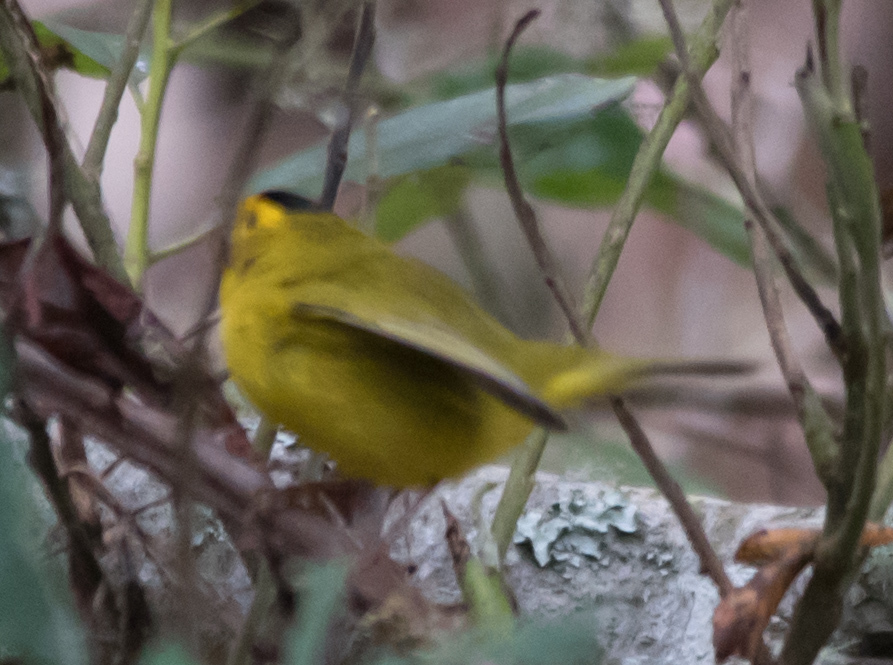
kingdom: Animalia
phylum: Chordata
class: Aves
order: Passeriformes
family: Parulidae
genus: Cardellina
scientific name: Cardellina pusilla
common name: Wilson's warbler
